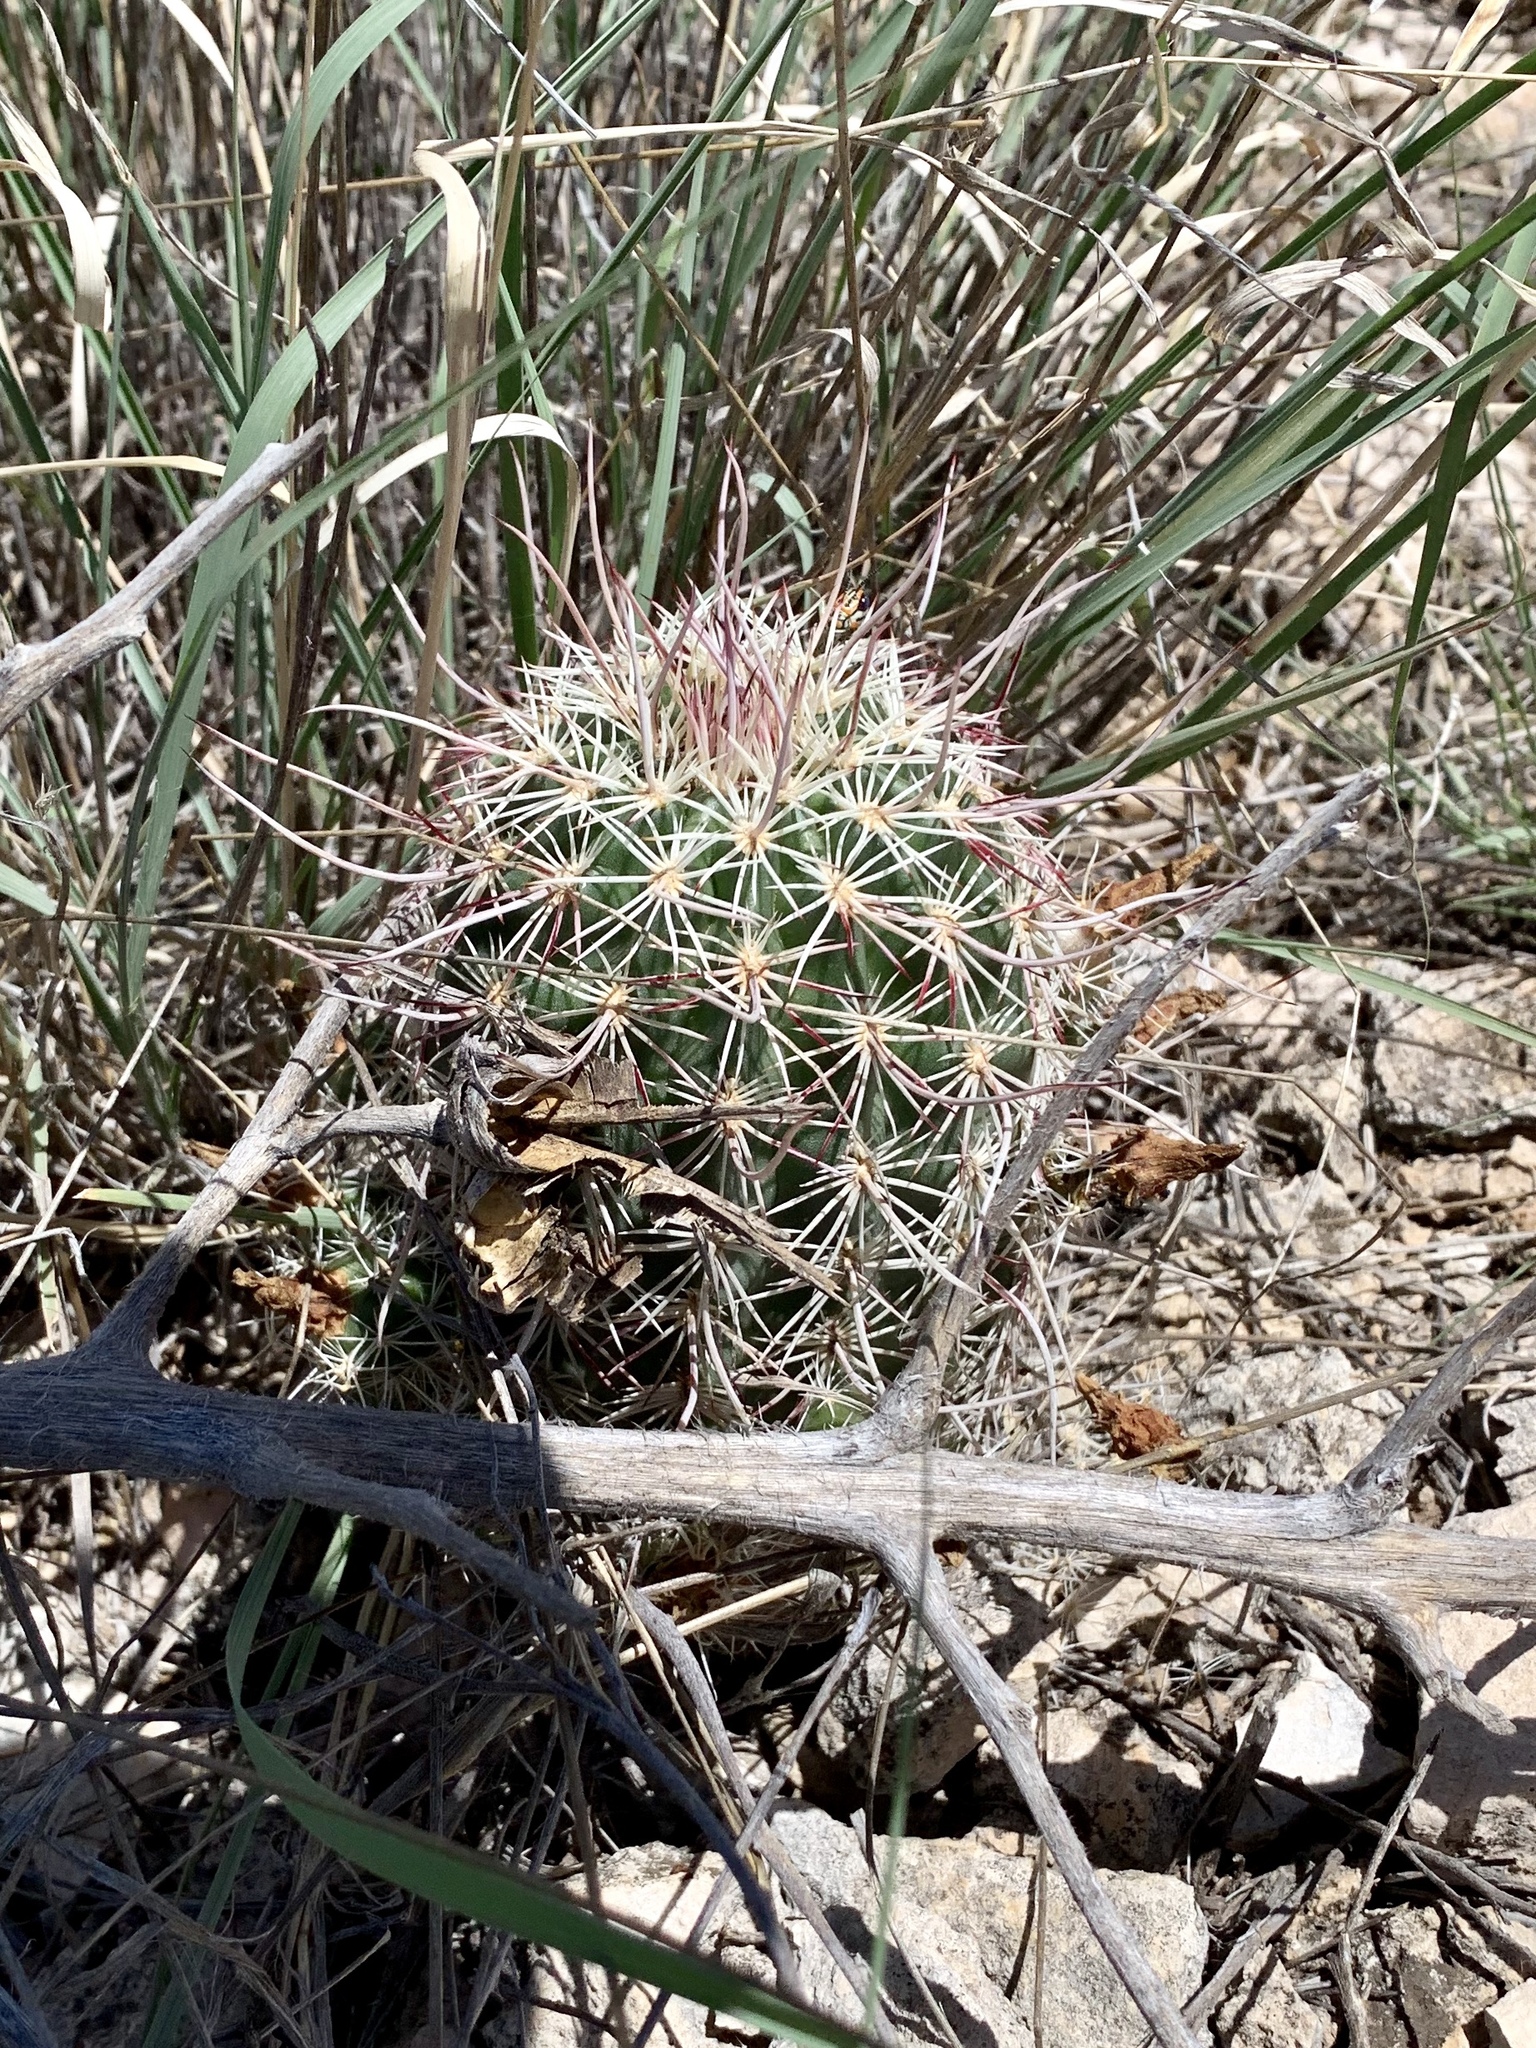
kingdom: Plantae
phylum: Tracheophyta
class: Magnoliopsida
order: Caryophyllales
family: Cactaceae
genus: Echinocereus
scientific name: Echinocereus viridiflorus
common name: Nylon hedgehog cactus
